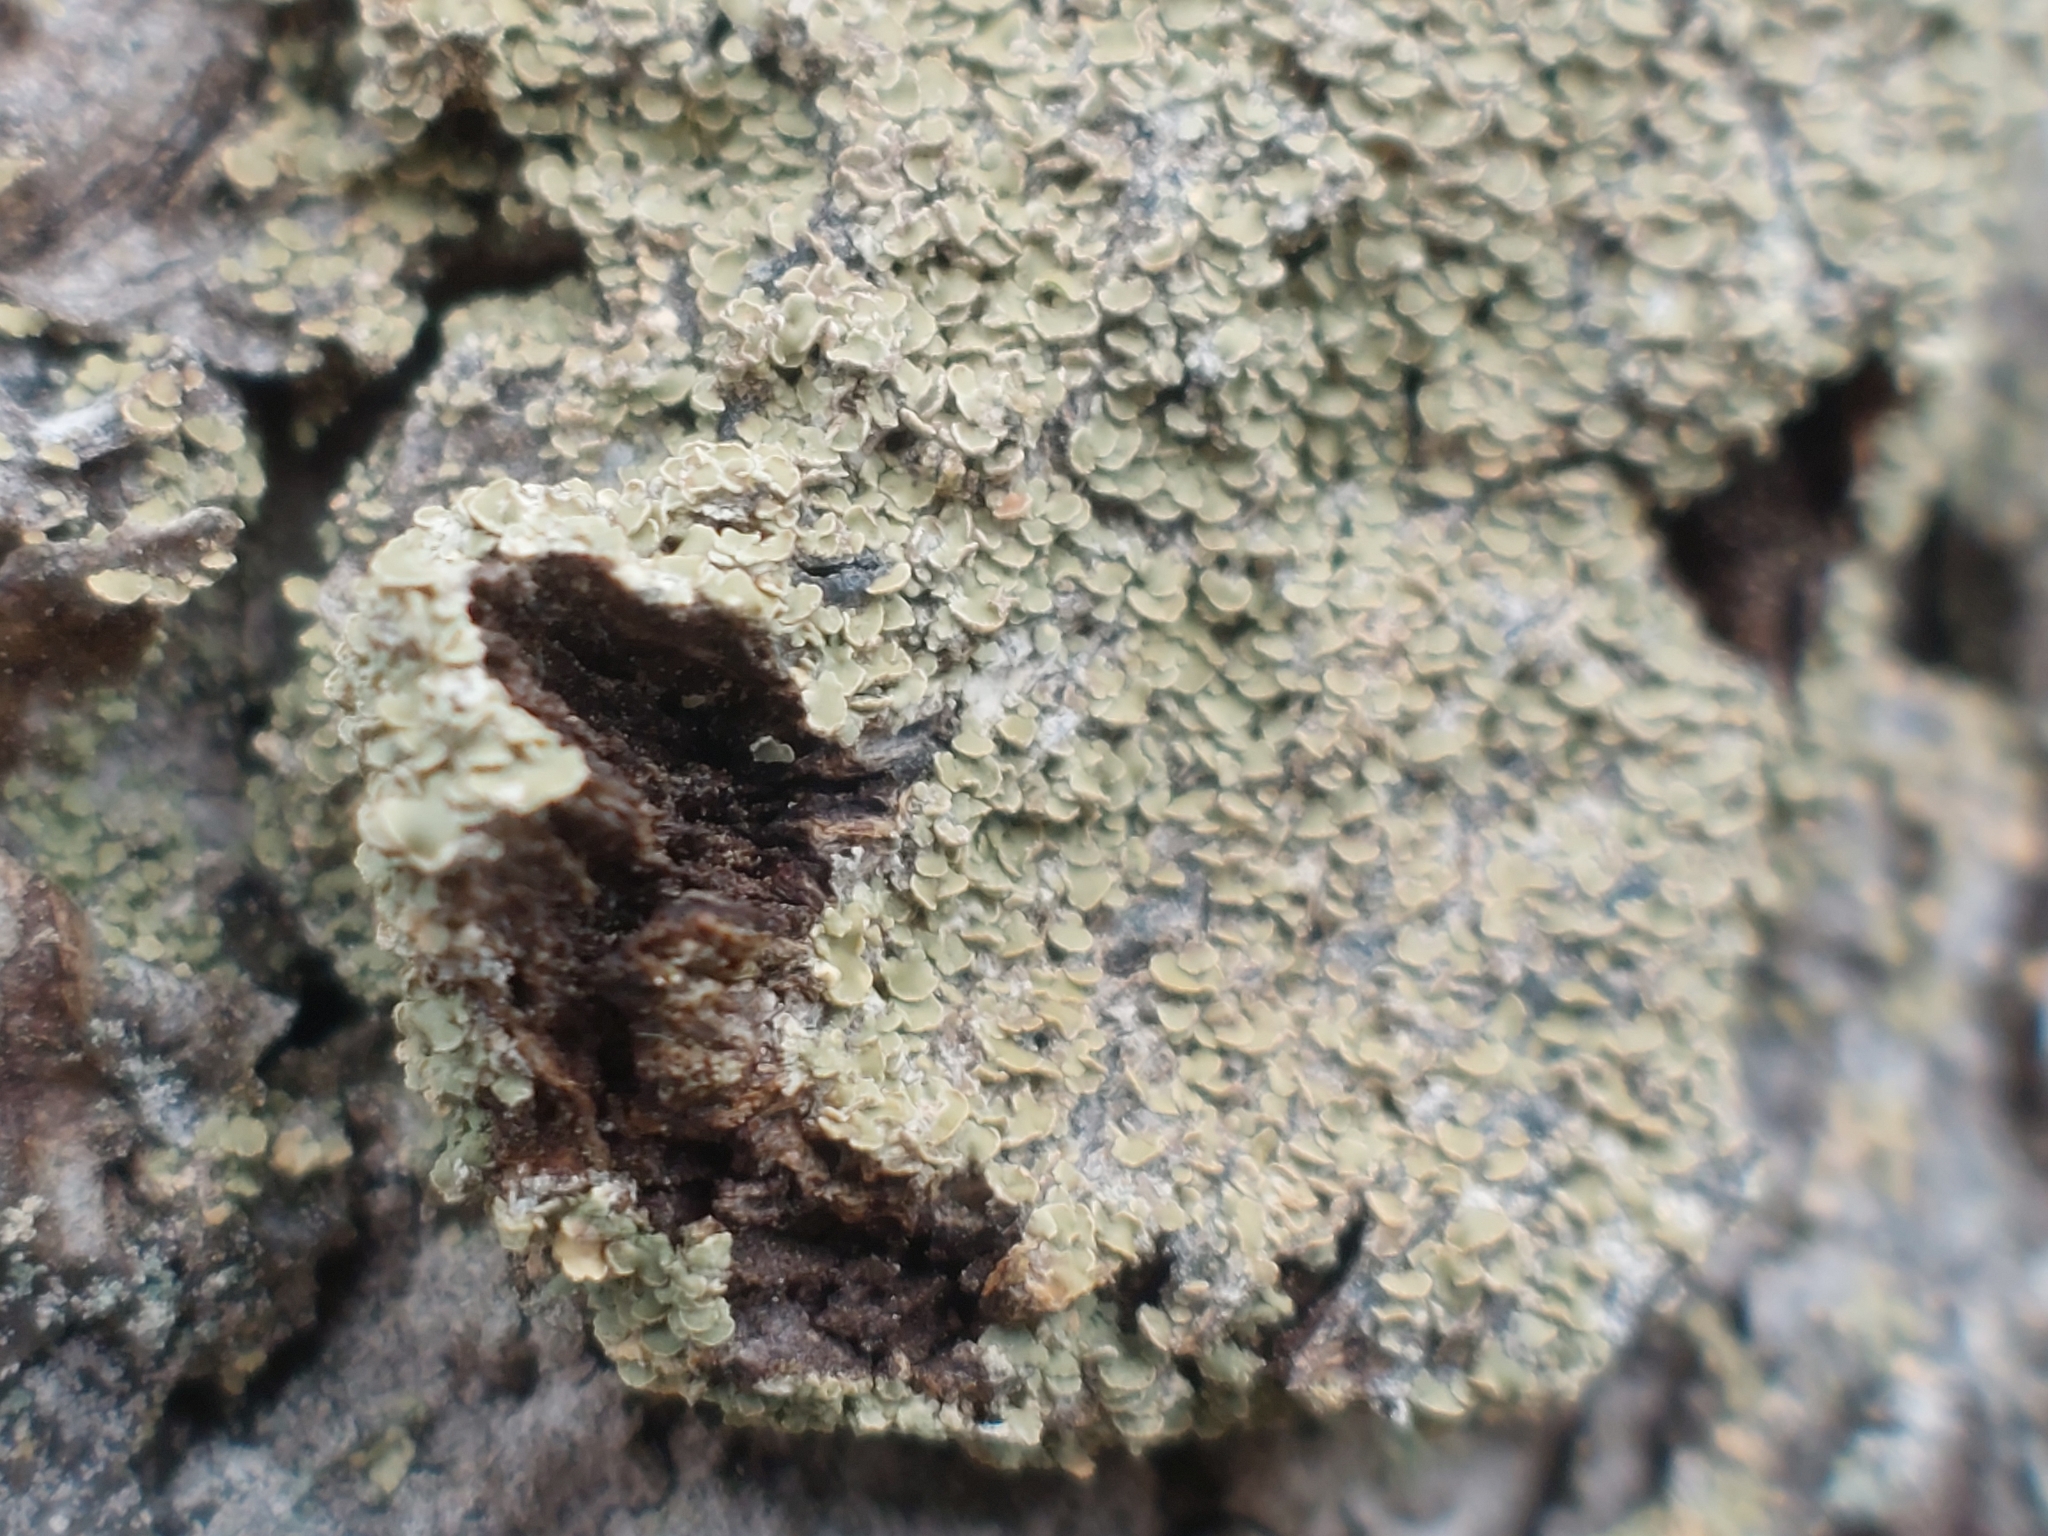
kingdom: Fungi
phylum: Ascomycota
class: Lecanoromycetes
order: Umbilicariales
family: Ophioparmaceae
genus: Hypocenomyce
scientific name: Hypocenomyce scalaris
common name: Common clam lichen
